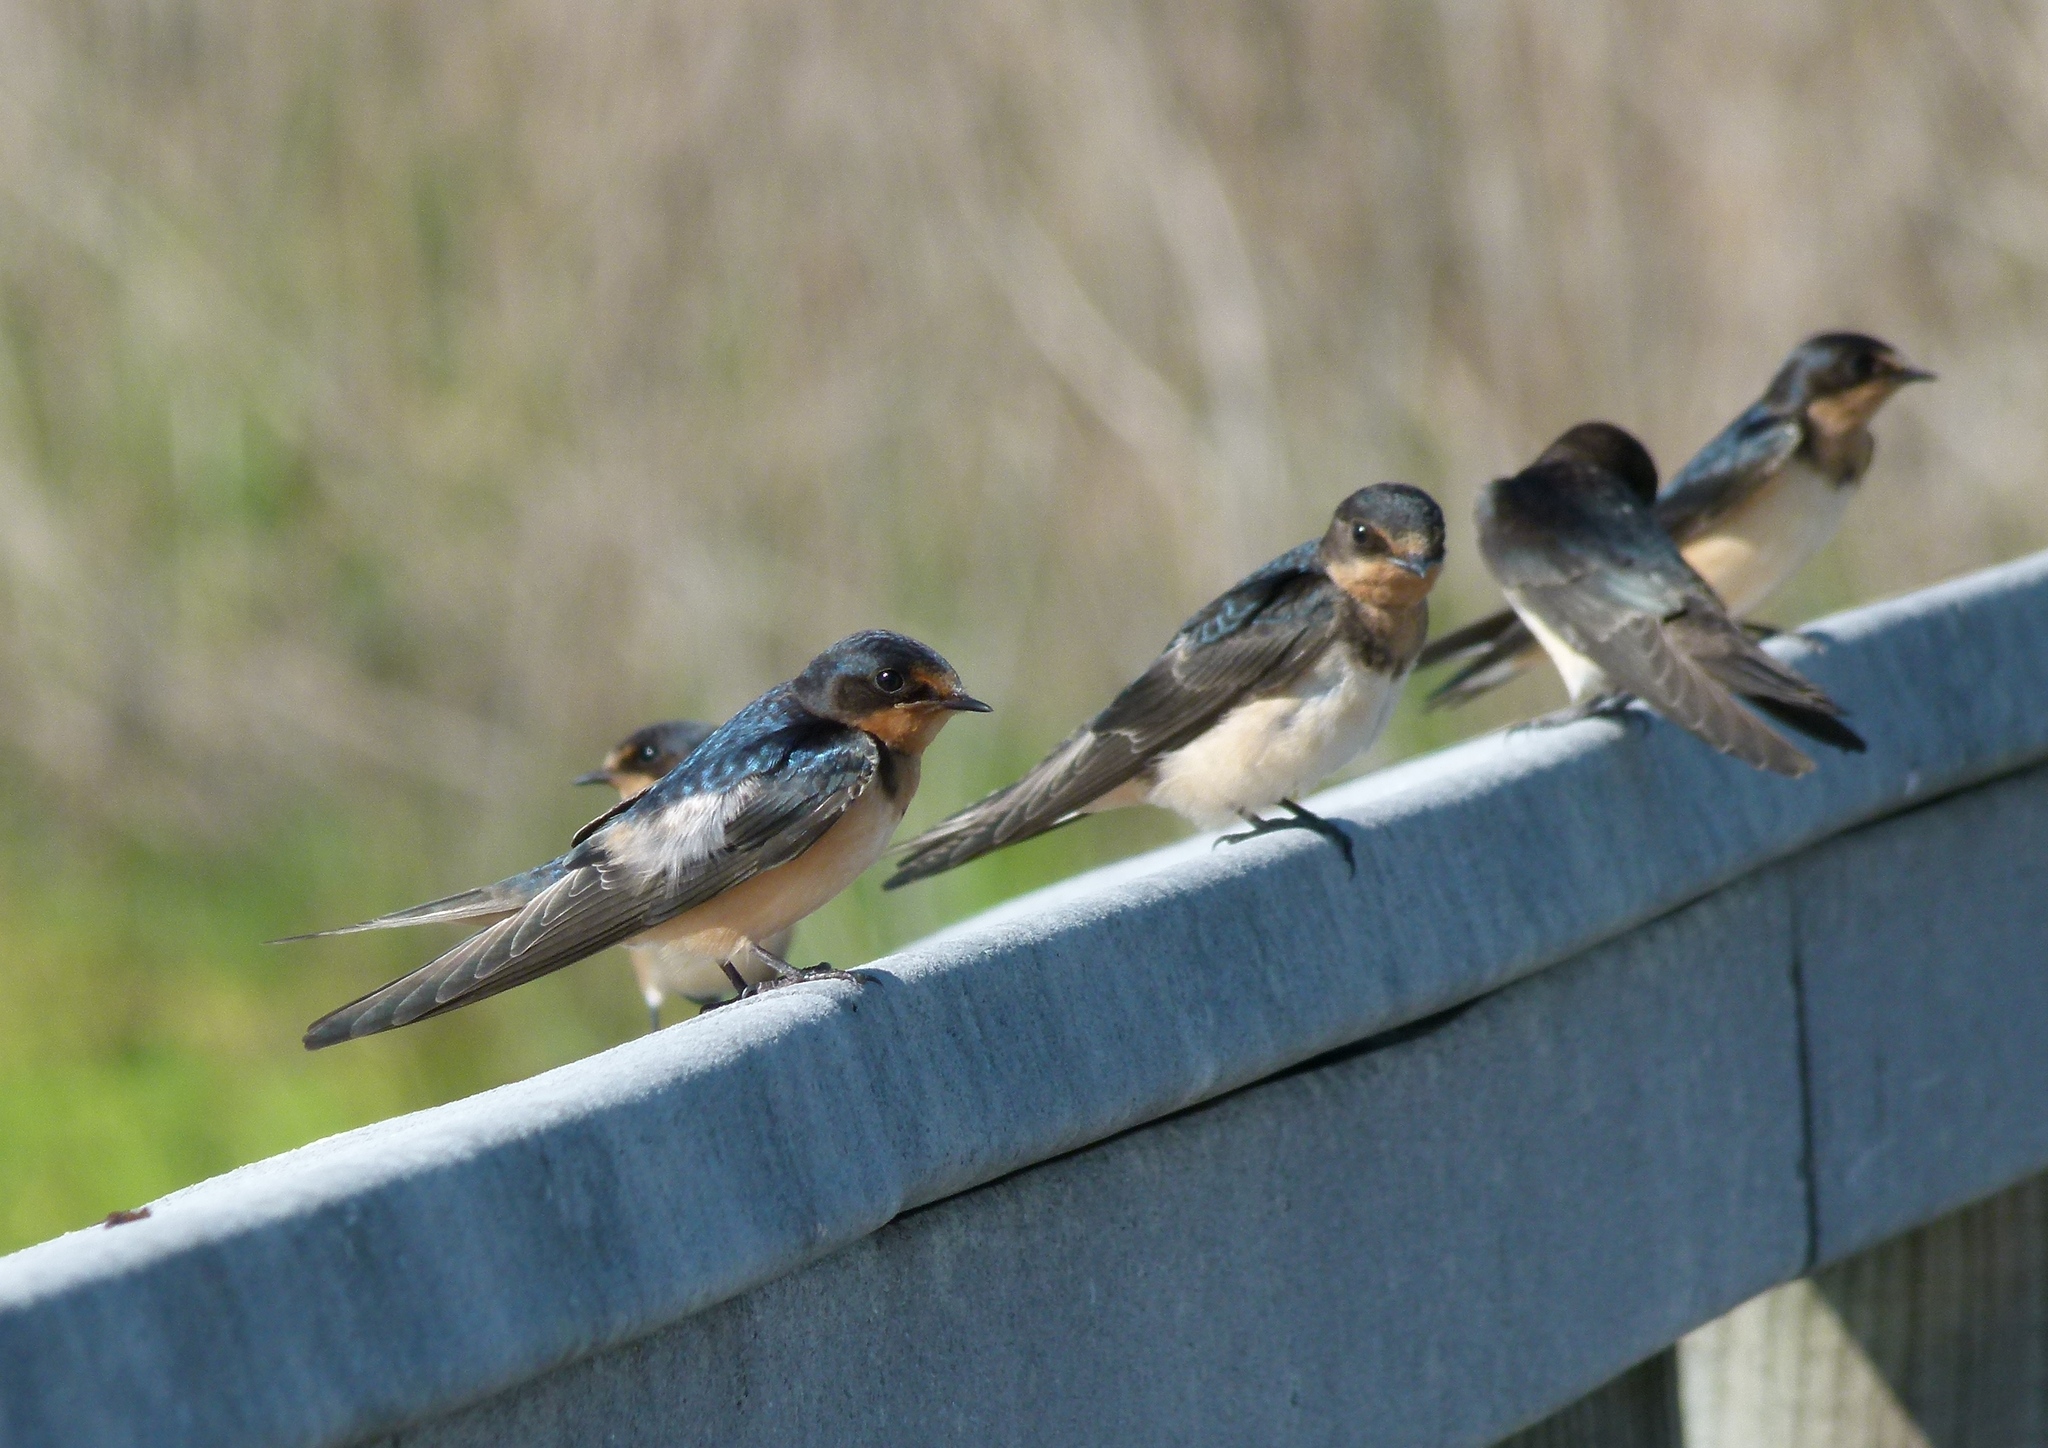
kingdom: Animalia
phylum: Chordata
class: Aves
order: Passeriformes
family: Hirundinidae
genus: Hirundo
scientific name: Hirundo rustica
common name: Barn swallow
